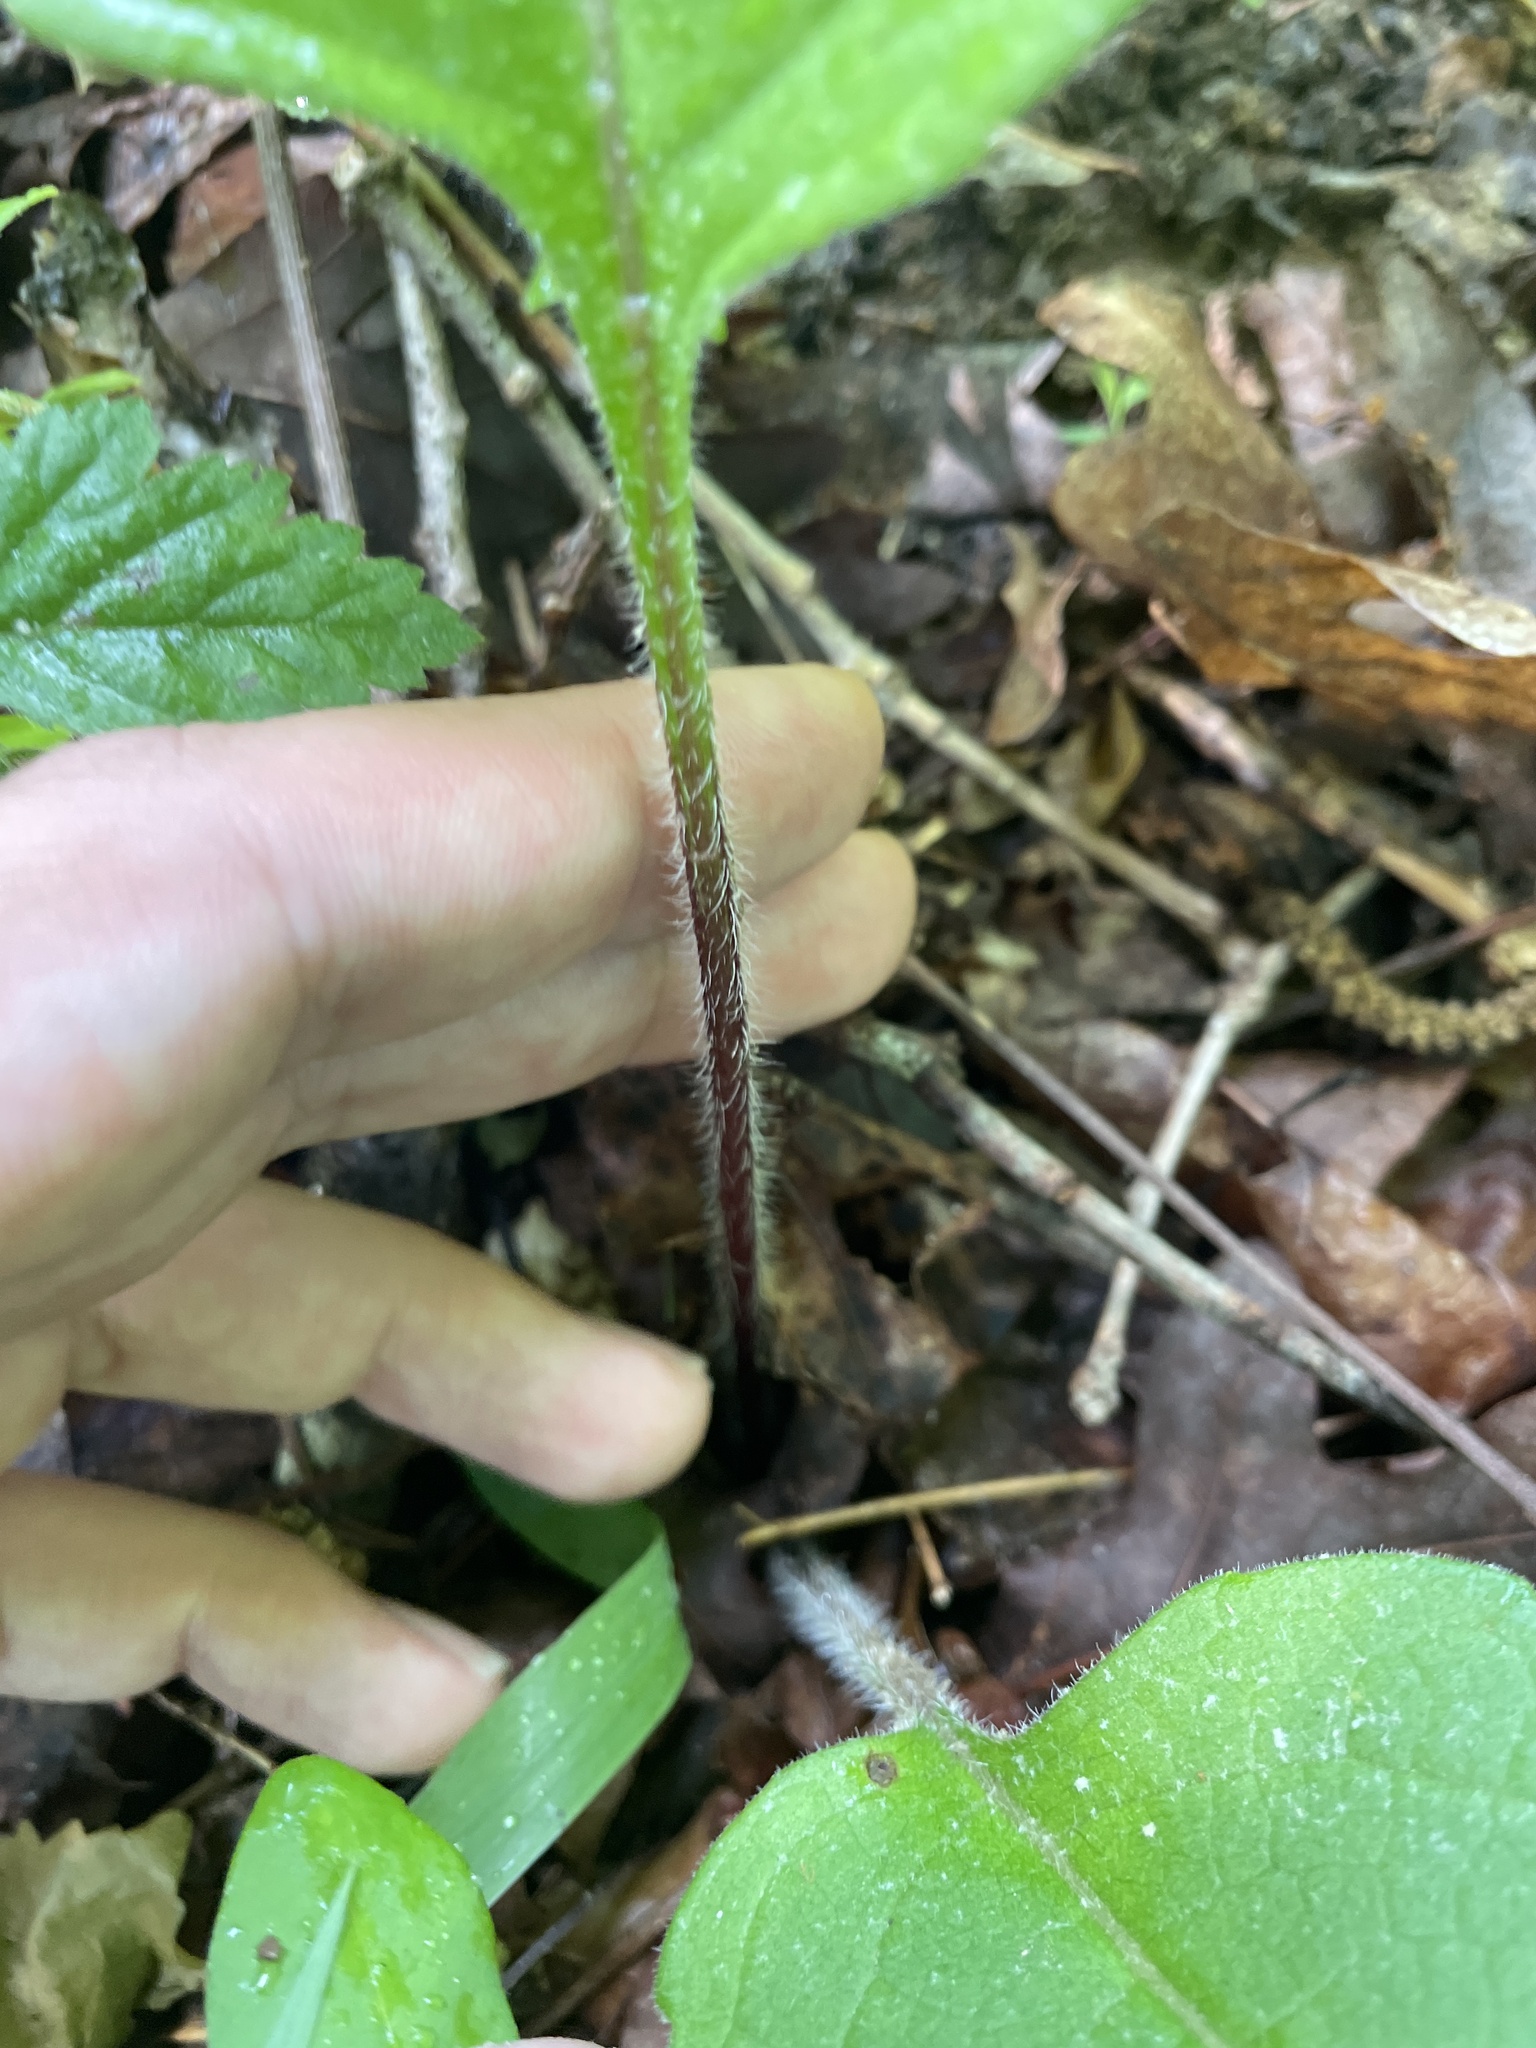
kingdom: Plantae
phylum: Tracheophyta
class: Magnoliopsida
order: Boraginales
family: Boraginaceae
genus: Andersonglossum
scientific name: Andersonglossum virginianum
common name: Wild comfrey
